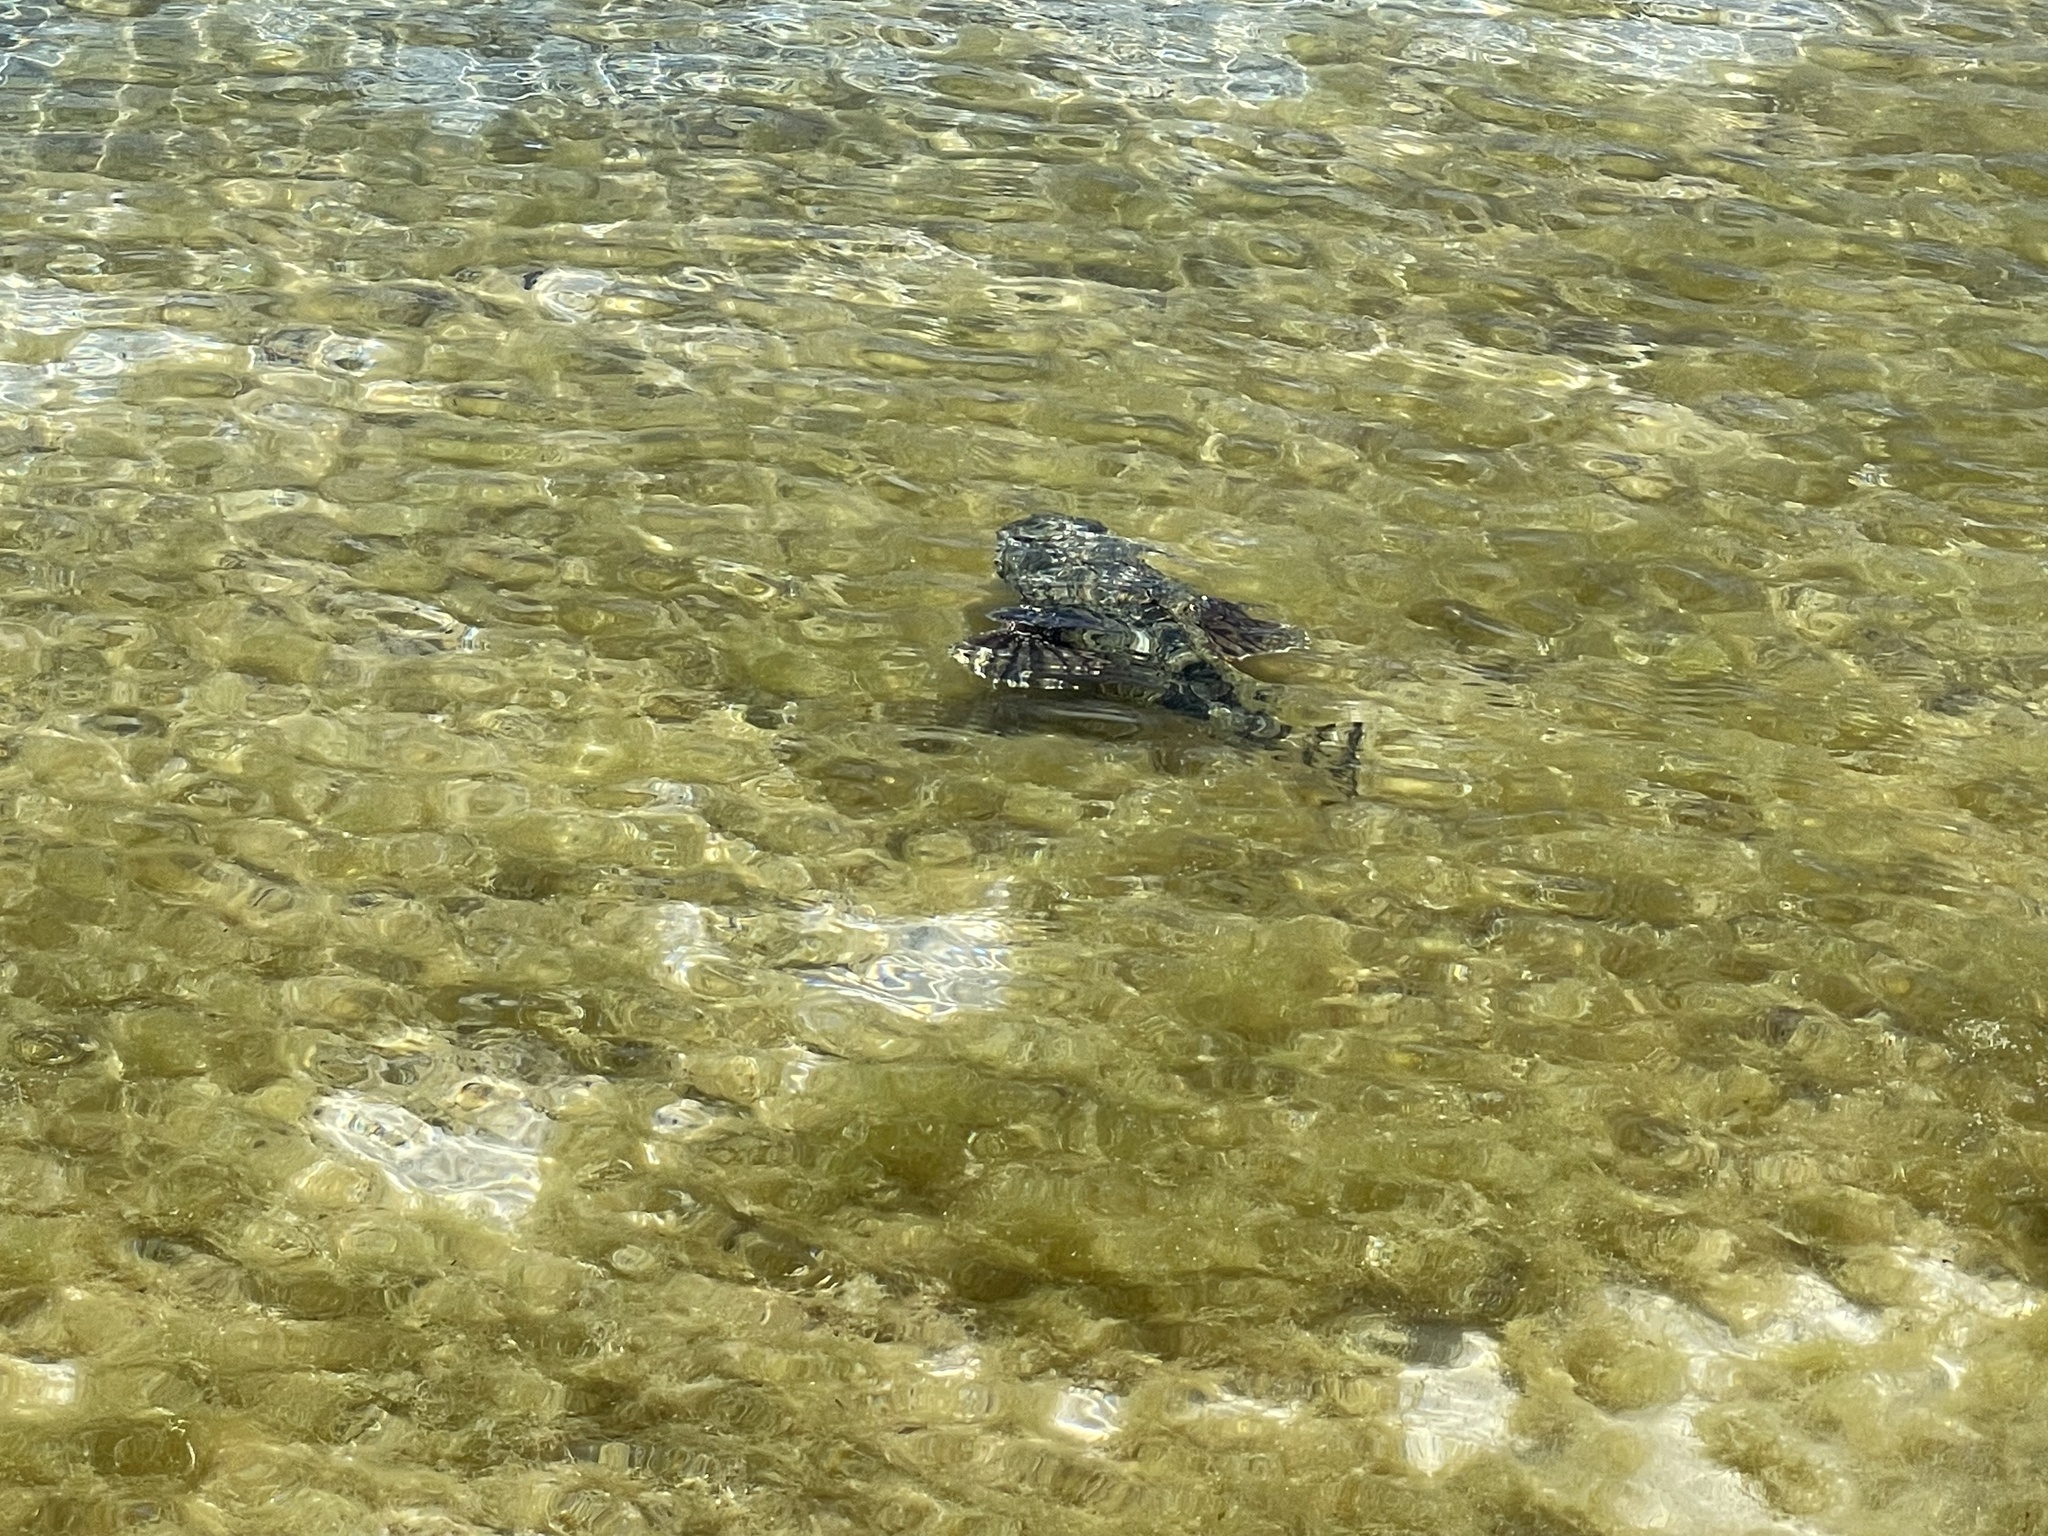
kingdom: Animalia
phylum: Chordata
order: Scorpaeniformes
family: Scorpaenidae
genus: Scorpaena
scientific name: Scorpaena mystes
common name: Pacific spotted scorpionfish
